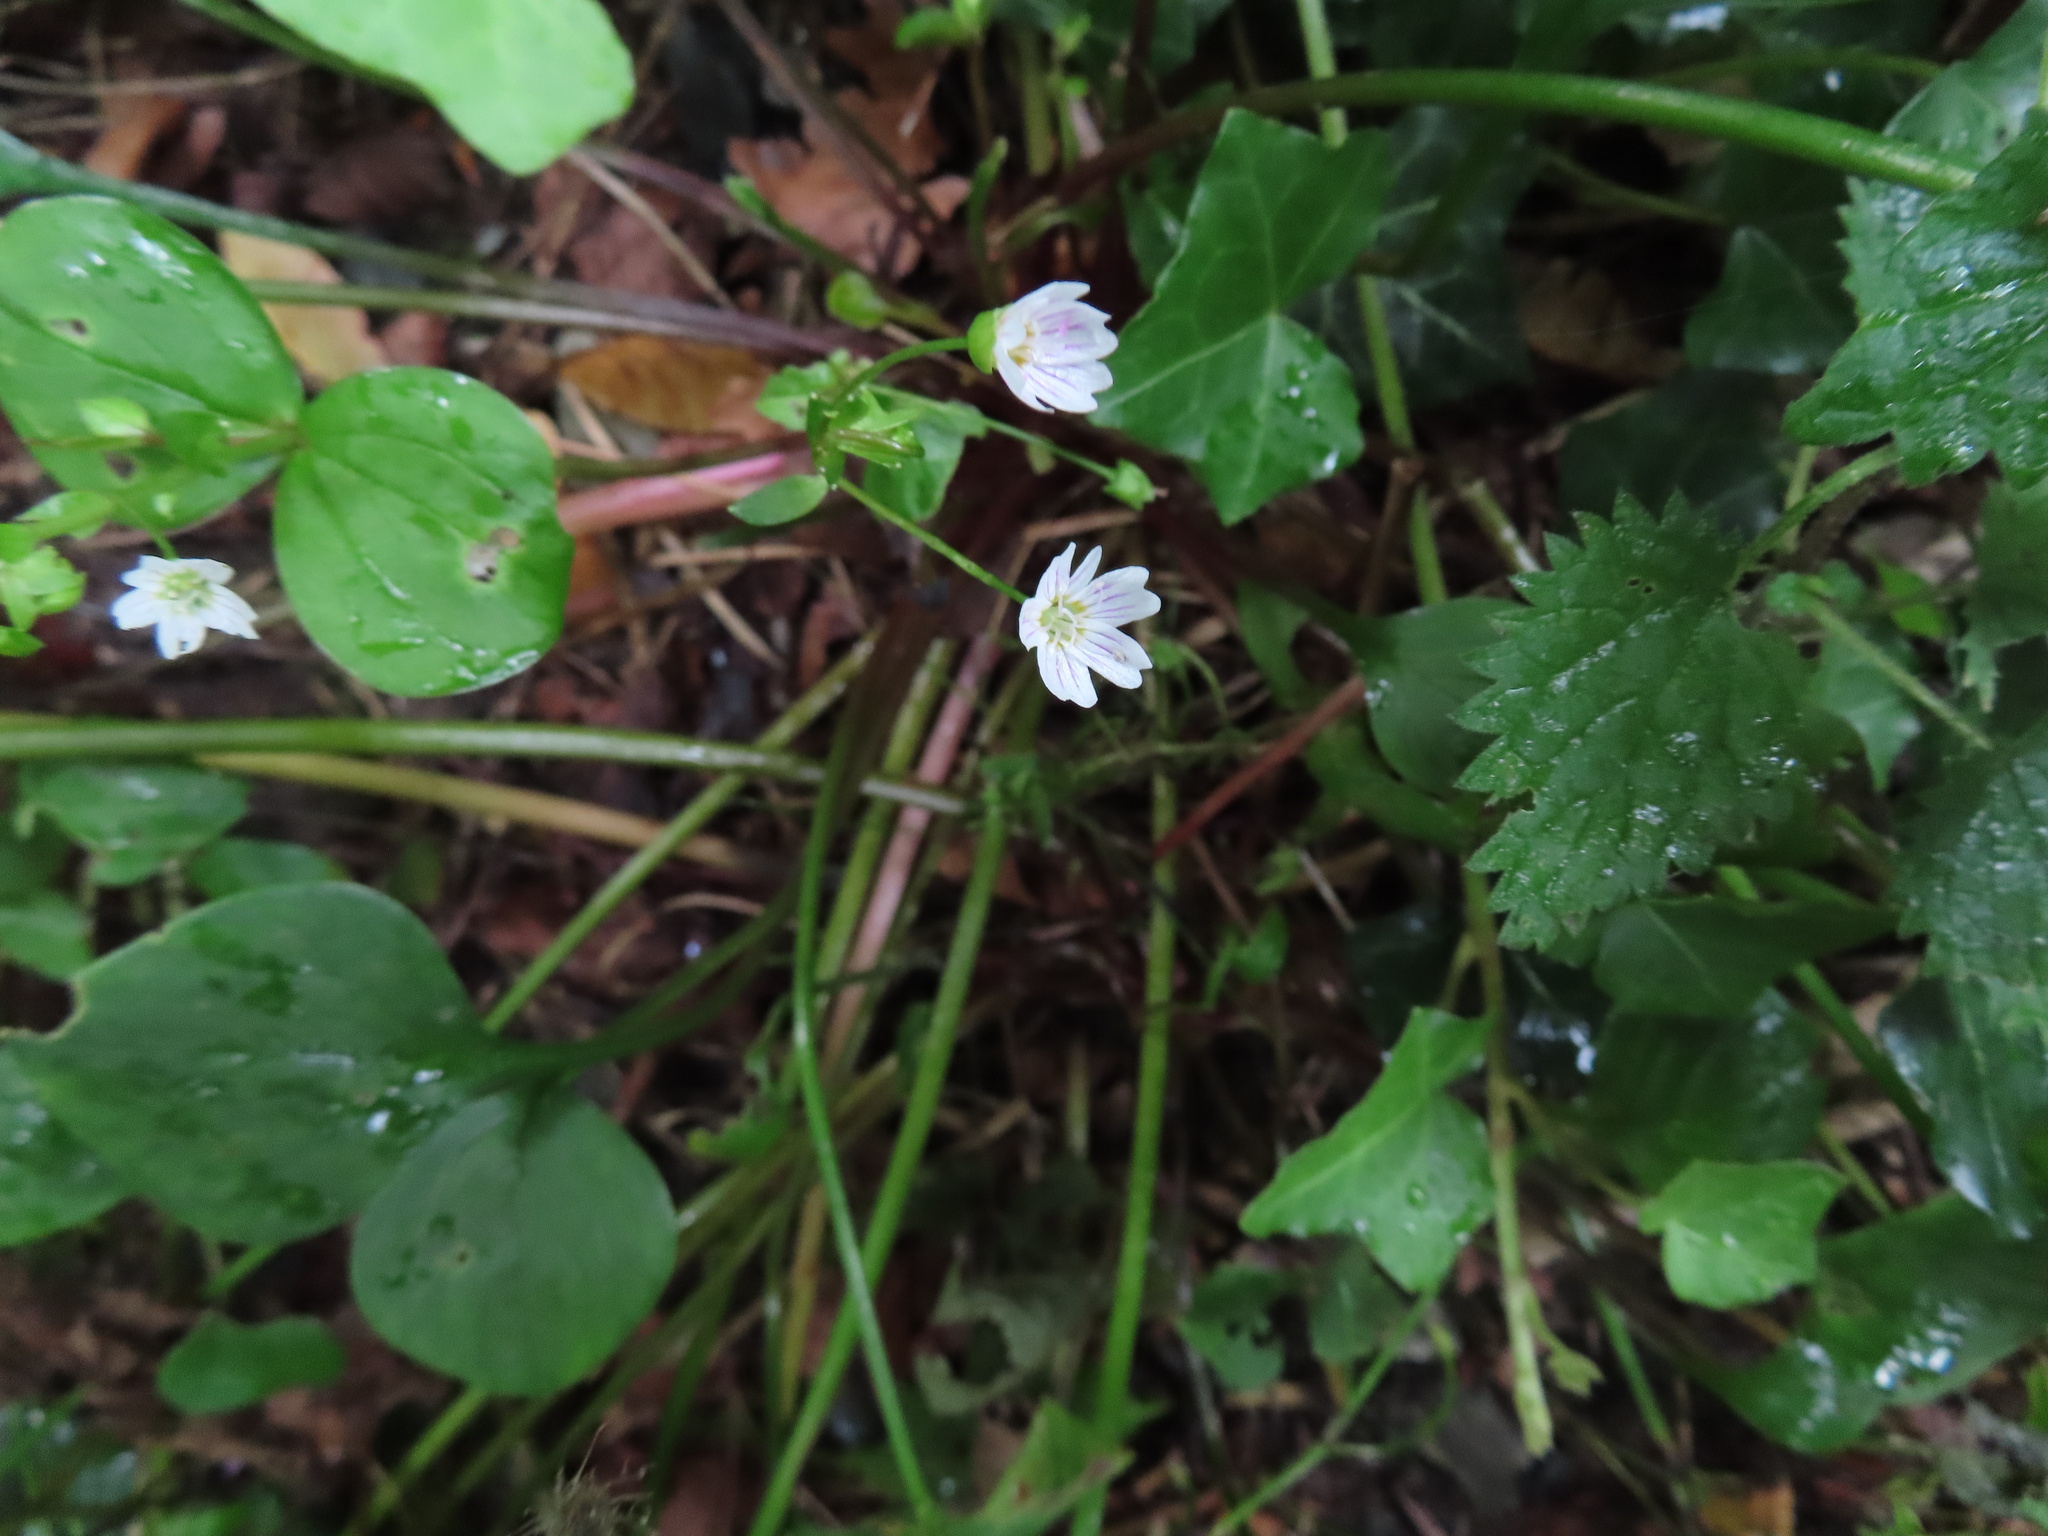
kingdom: Plantae
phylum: Tracheophyta
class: Magnoliopsida
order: Caryophyllales
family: Montiaceae
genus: Claytonia
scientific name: Claytonia sibirica
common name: Pink purslane
